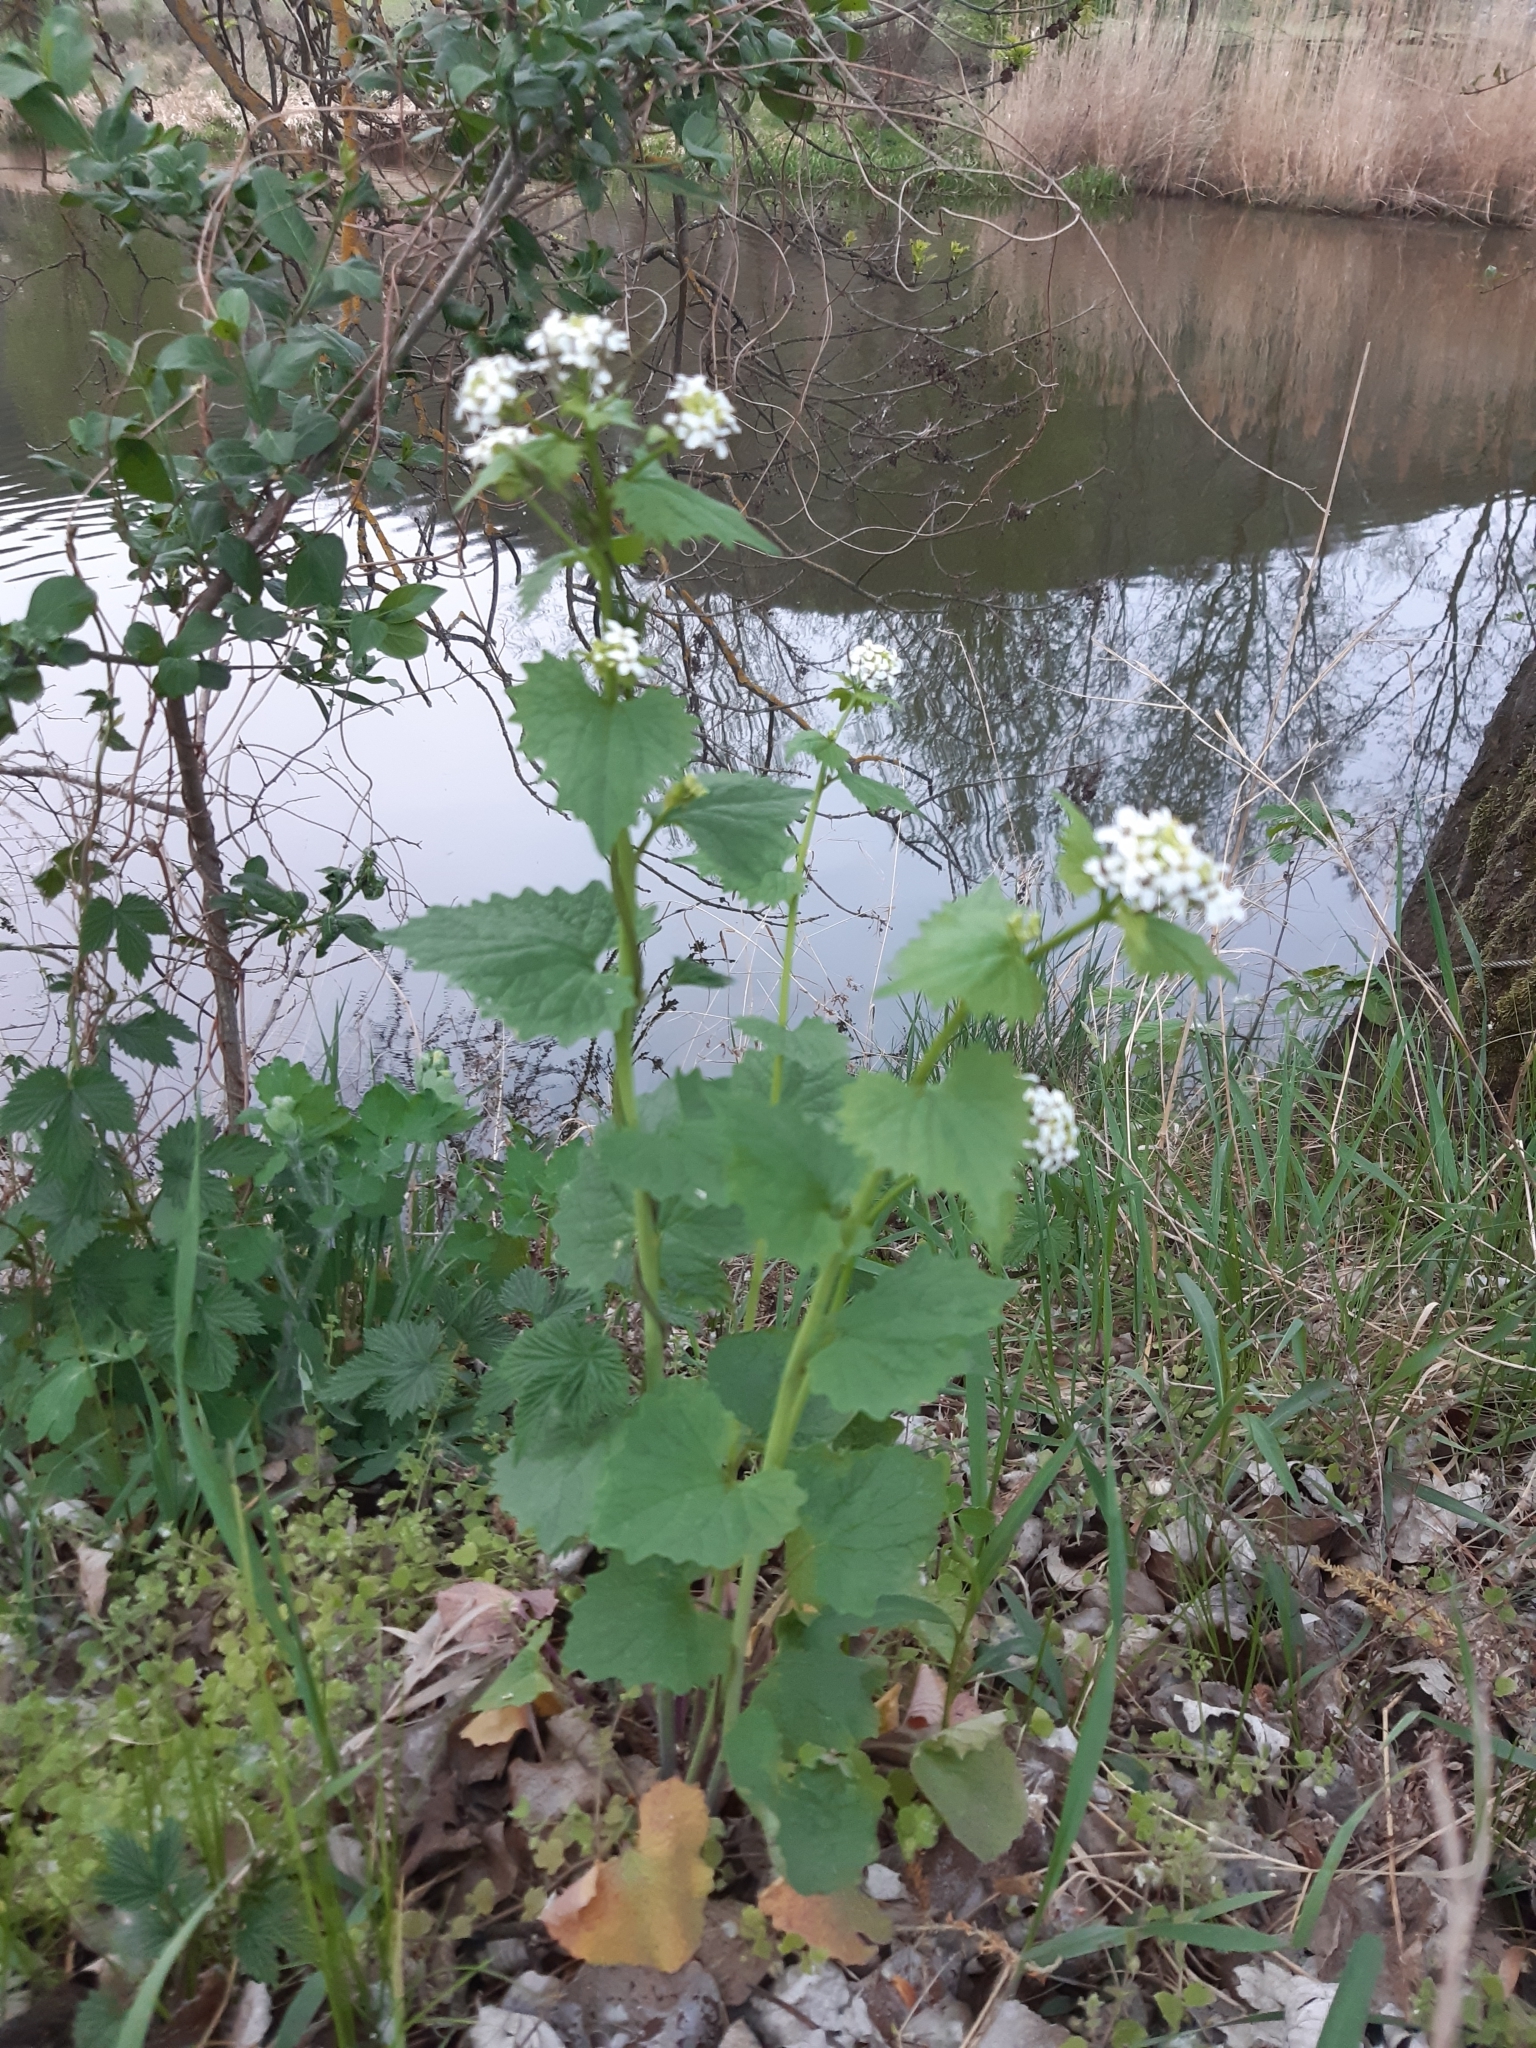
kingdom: Plantae
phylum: Tracheophyta
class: Magnoliopsida
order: Brassicales
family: Brassicaceae
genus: Alliaria
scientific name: Alliaria petiolata
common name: Garlic mustard
